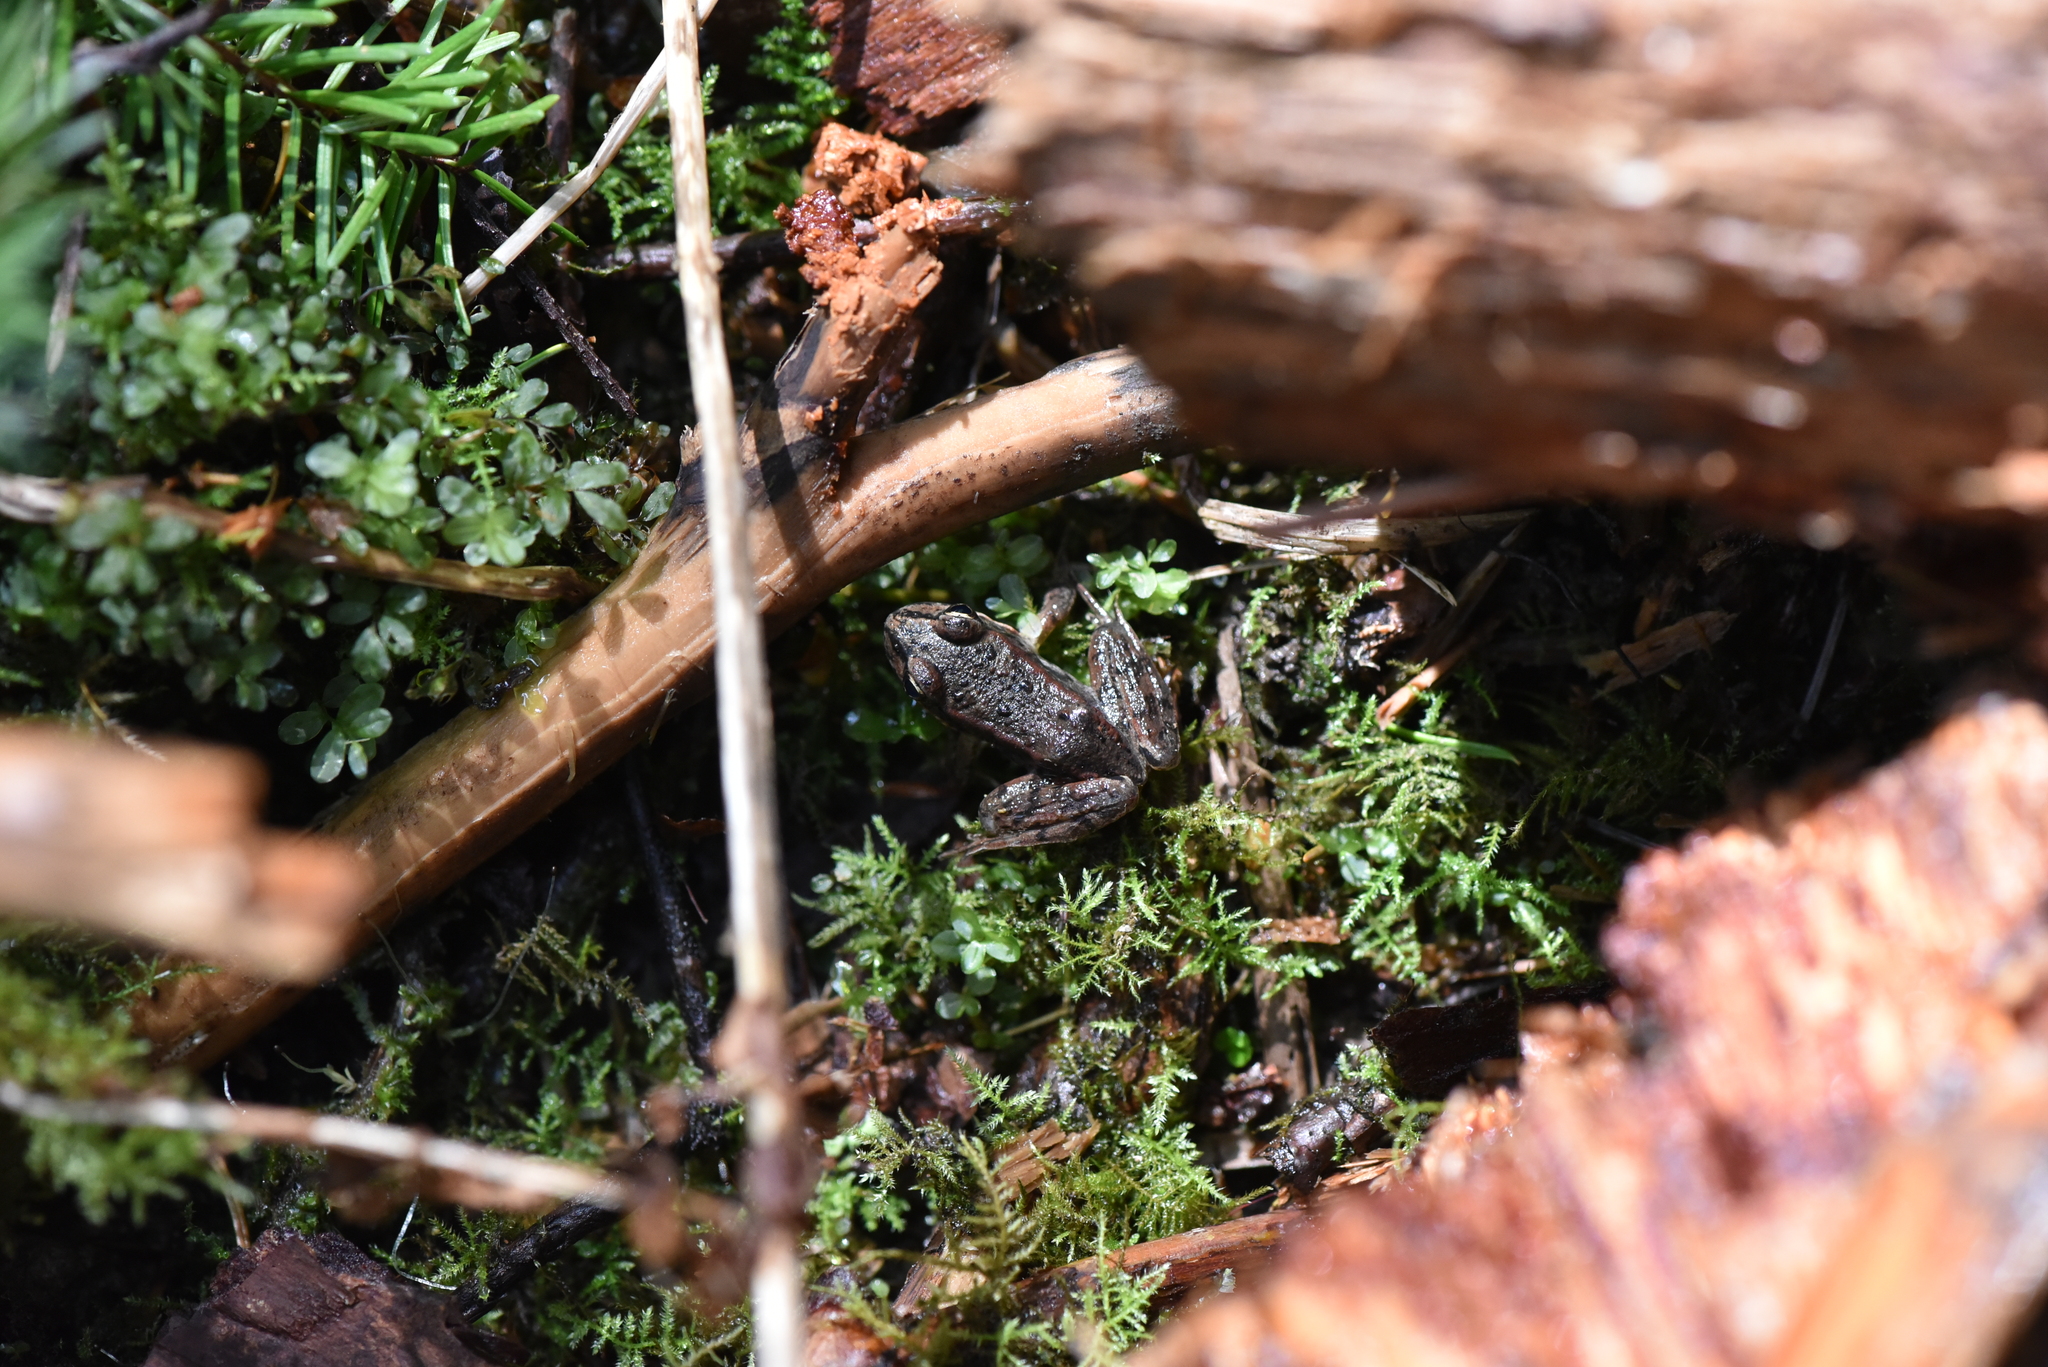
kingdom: Animalia
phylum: Chordata
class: Amphibia
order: Anura
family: Ranidae
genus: Rana
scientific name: Rana aurora
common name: Red-legged frog
